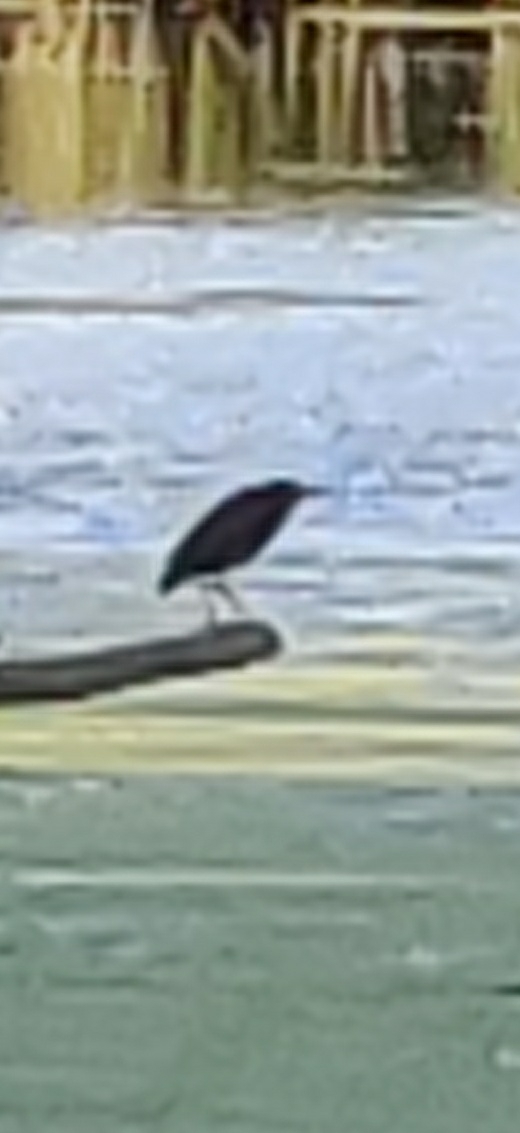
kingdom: Animalia
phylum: Chordata
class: Aves
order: Pelecaniformes
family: Ardeidae
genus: Butorides
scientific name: Butorides virescens
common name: Green heron
